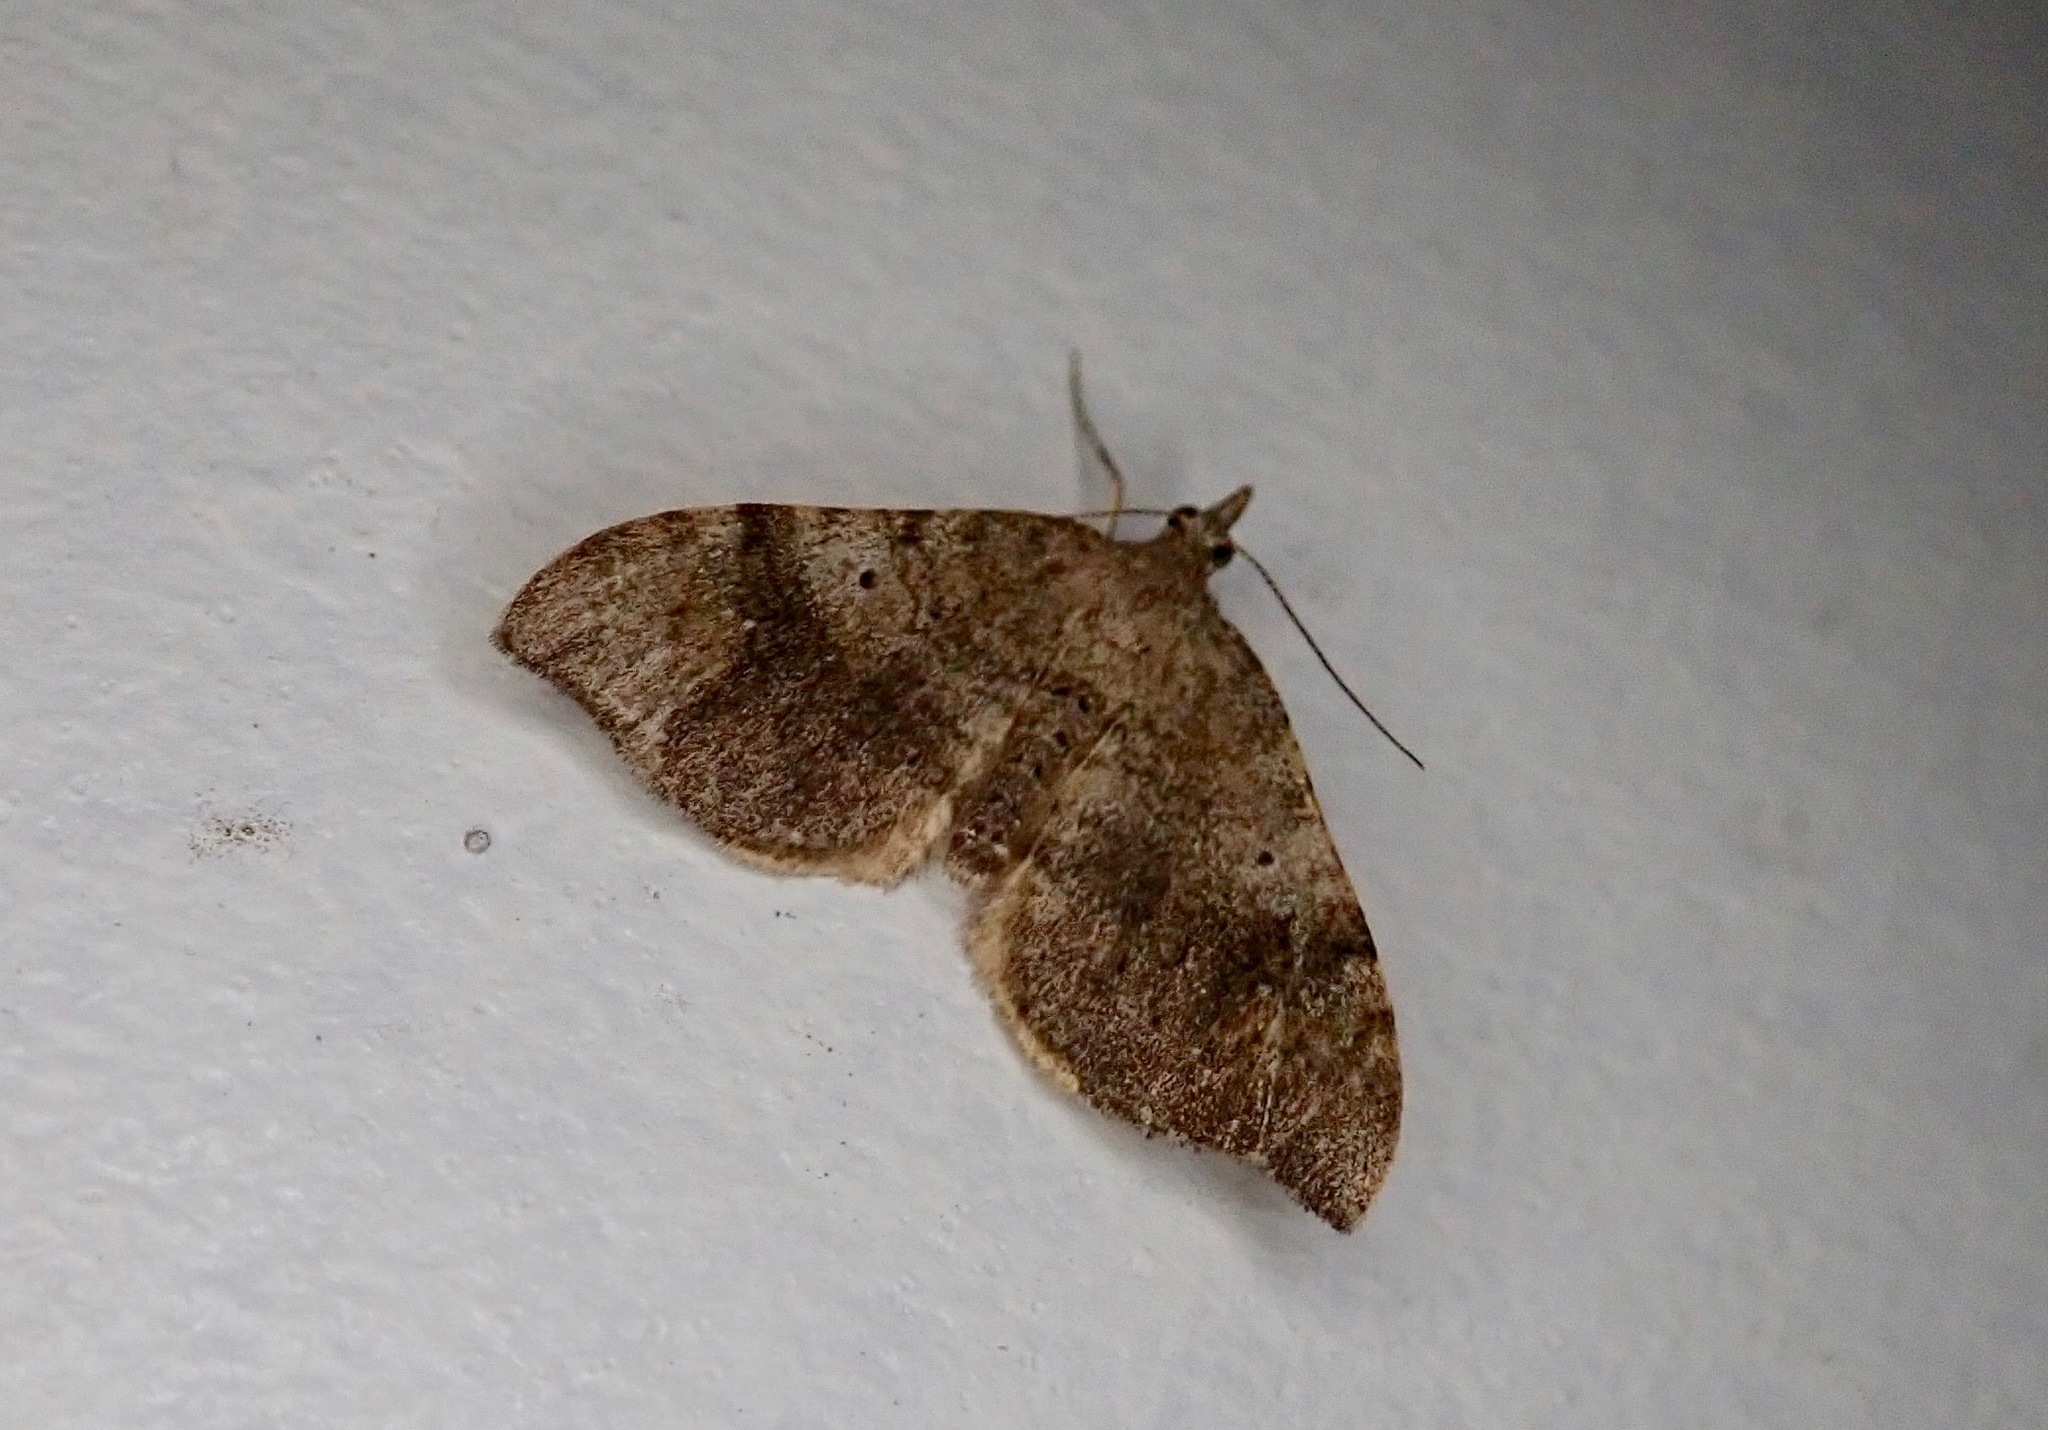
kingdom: Animalia
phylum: Arthropoda
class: Insecta
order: Lepidoptera
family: Geometridae
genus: Homodotis
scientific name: Homodotis megaspilata
